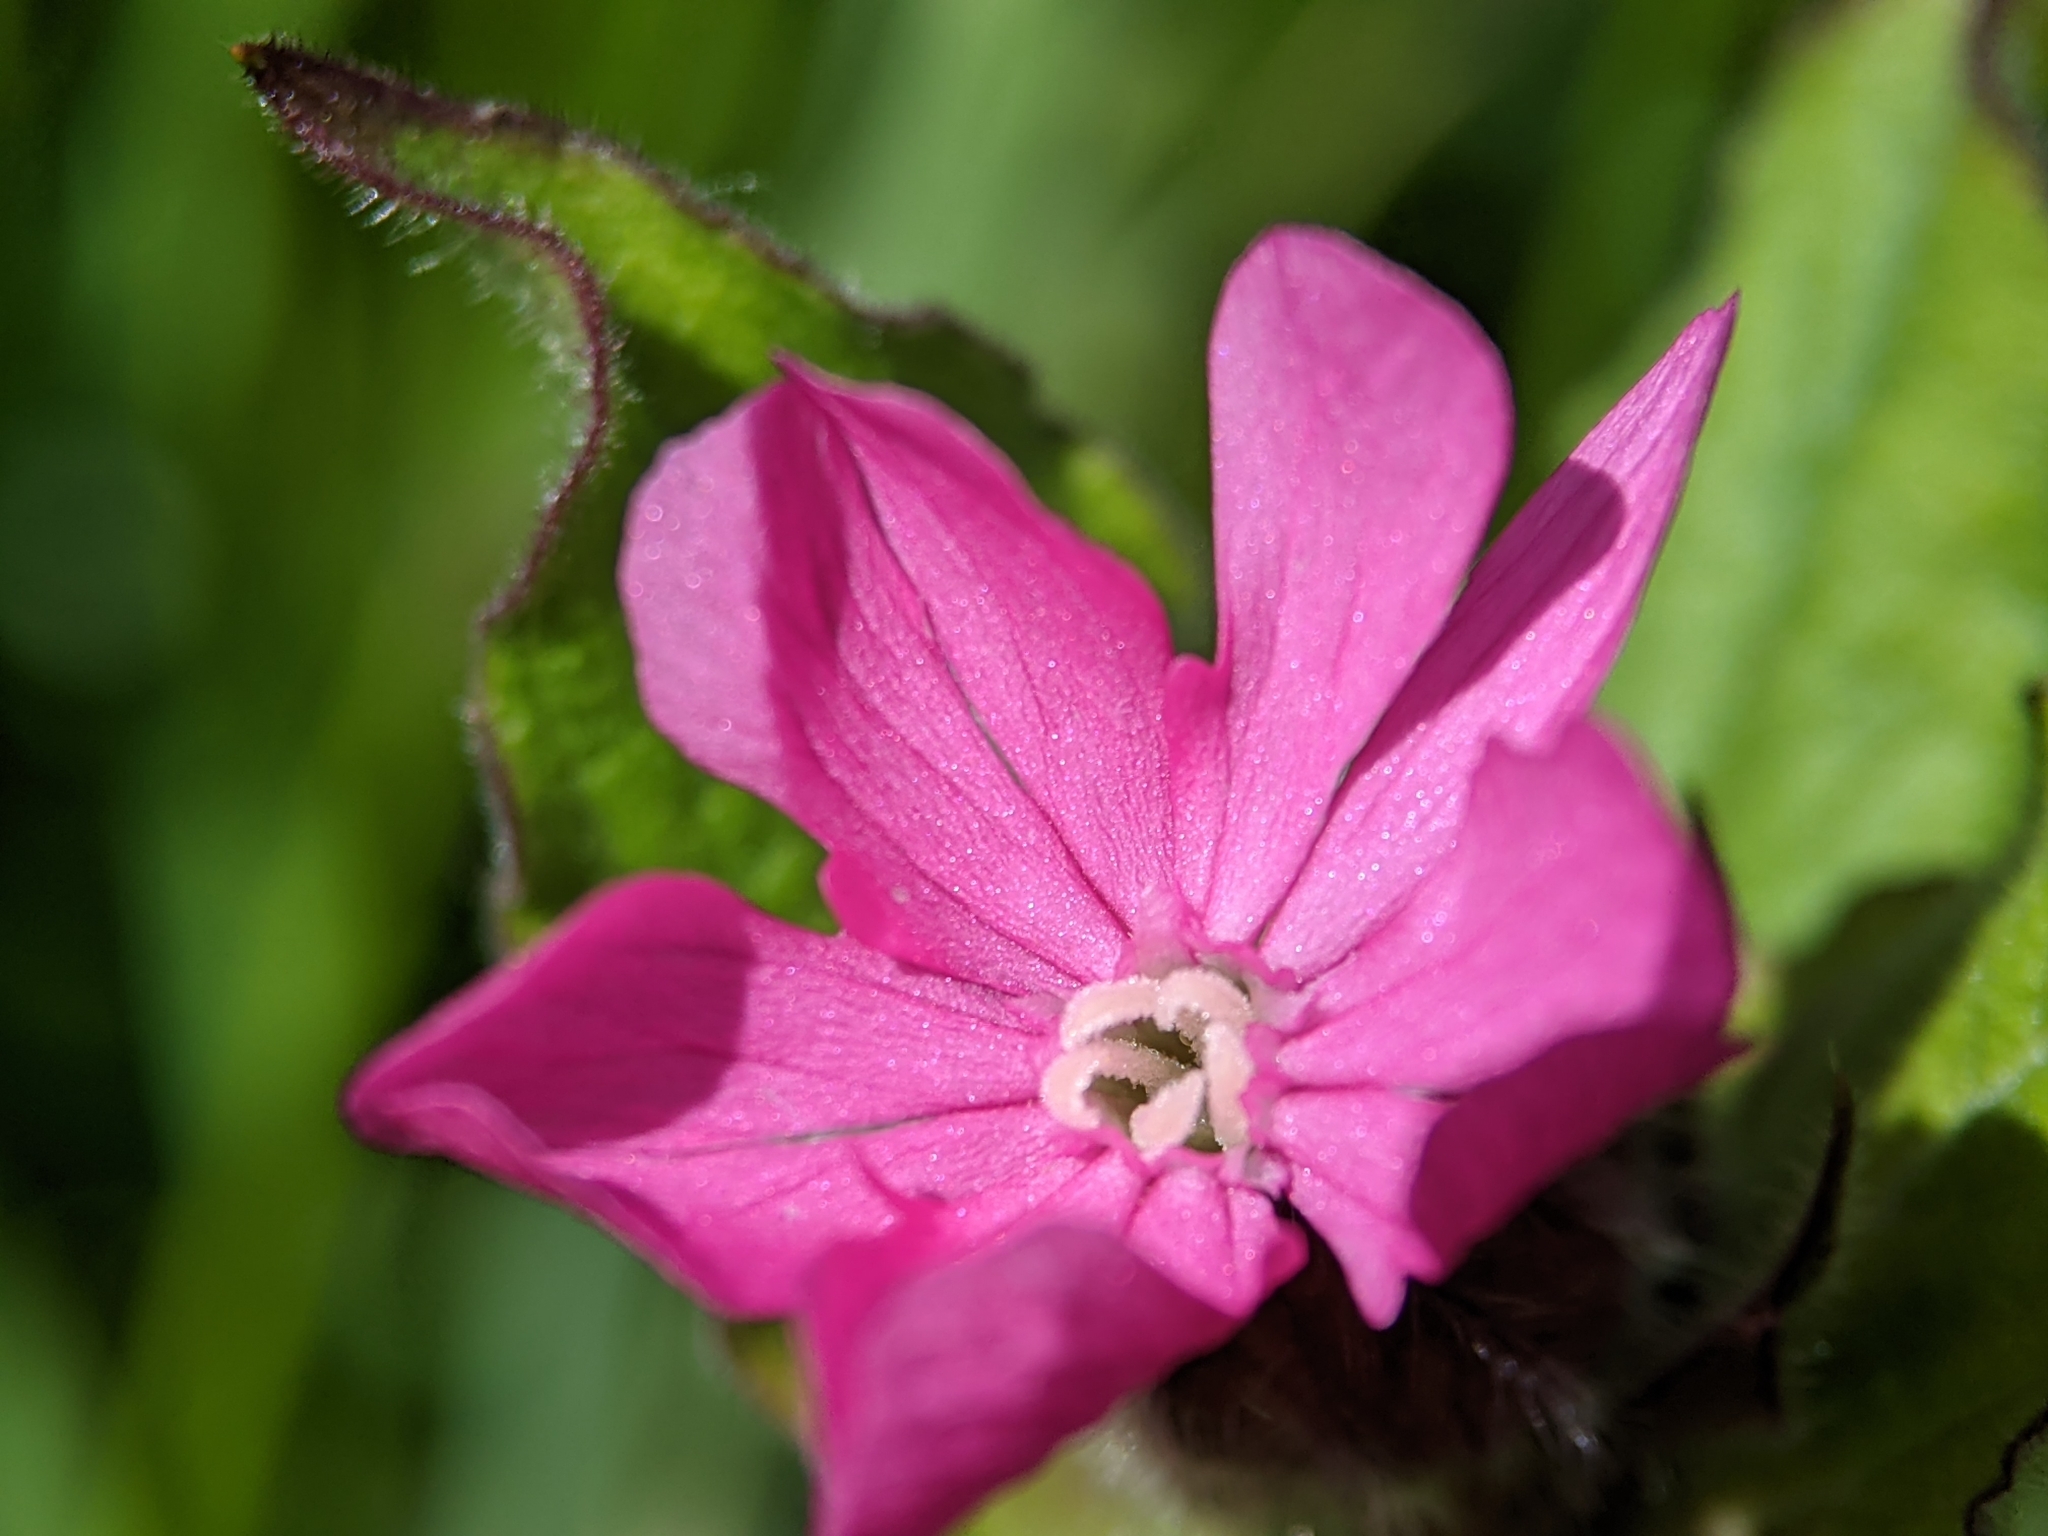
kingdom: Plantae
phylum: Tracheophyta
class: Magnoliopsida
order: Caryophyllales
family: Caryophyllaceae
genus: Silene
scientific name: Silene dioica
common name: Red campion
